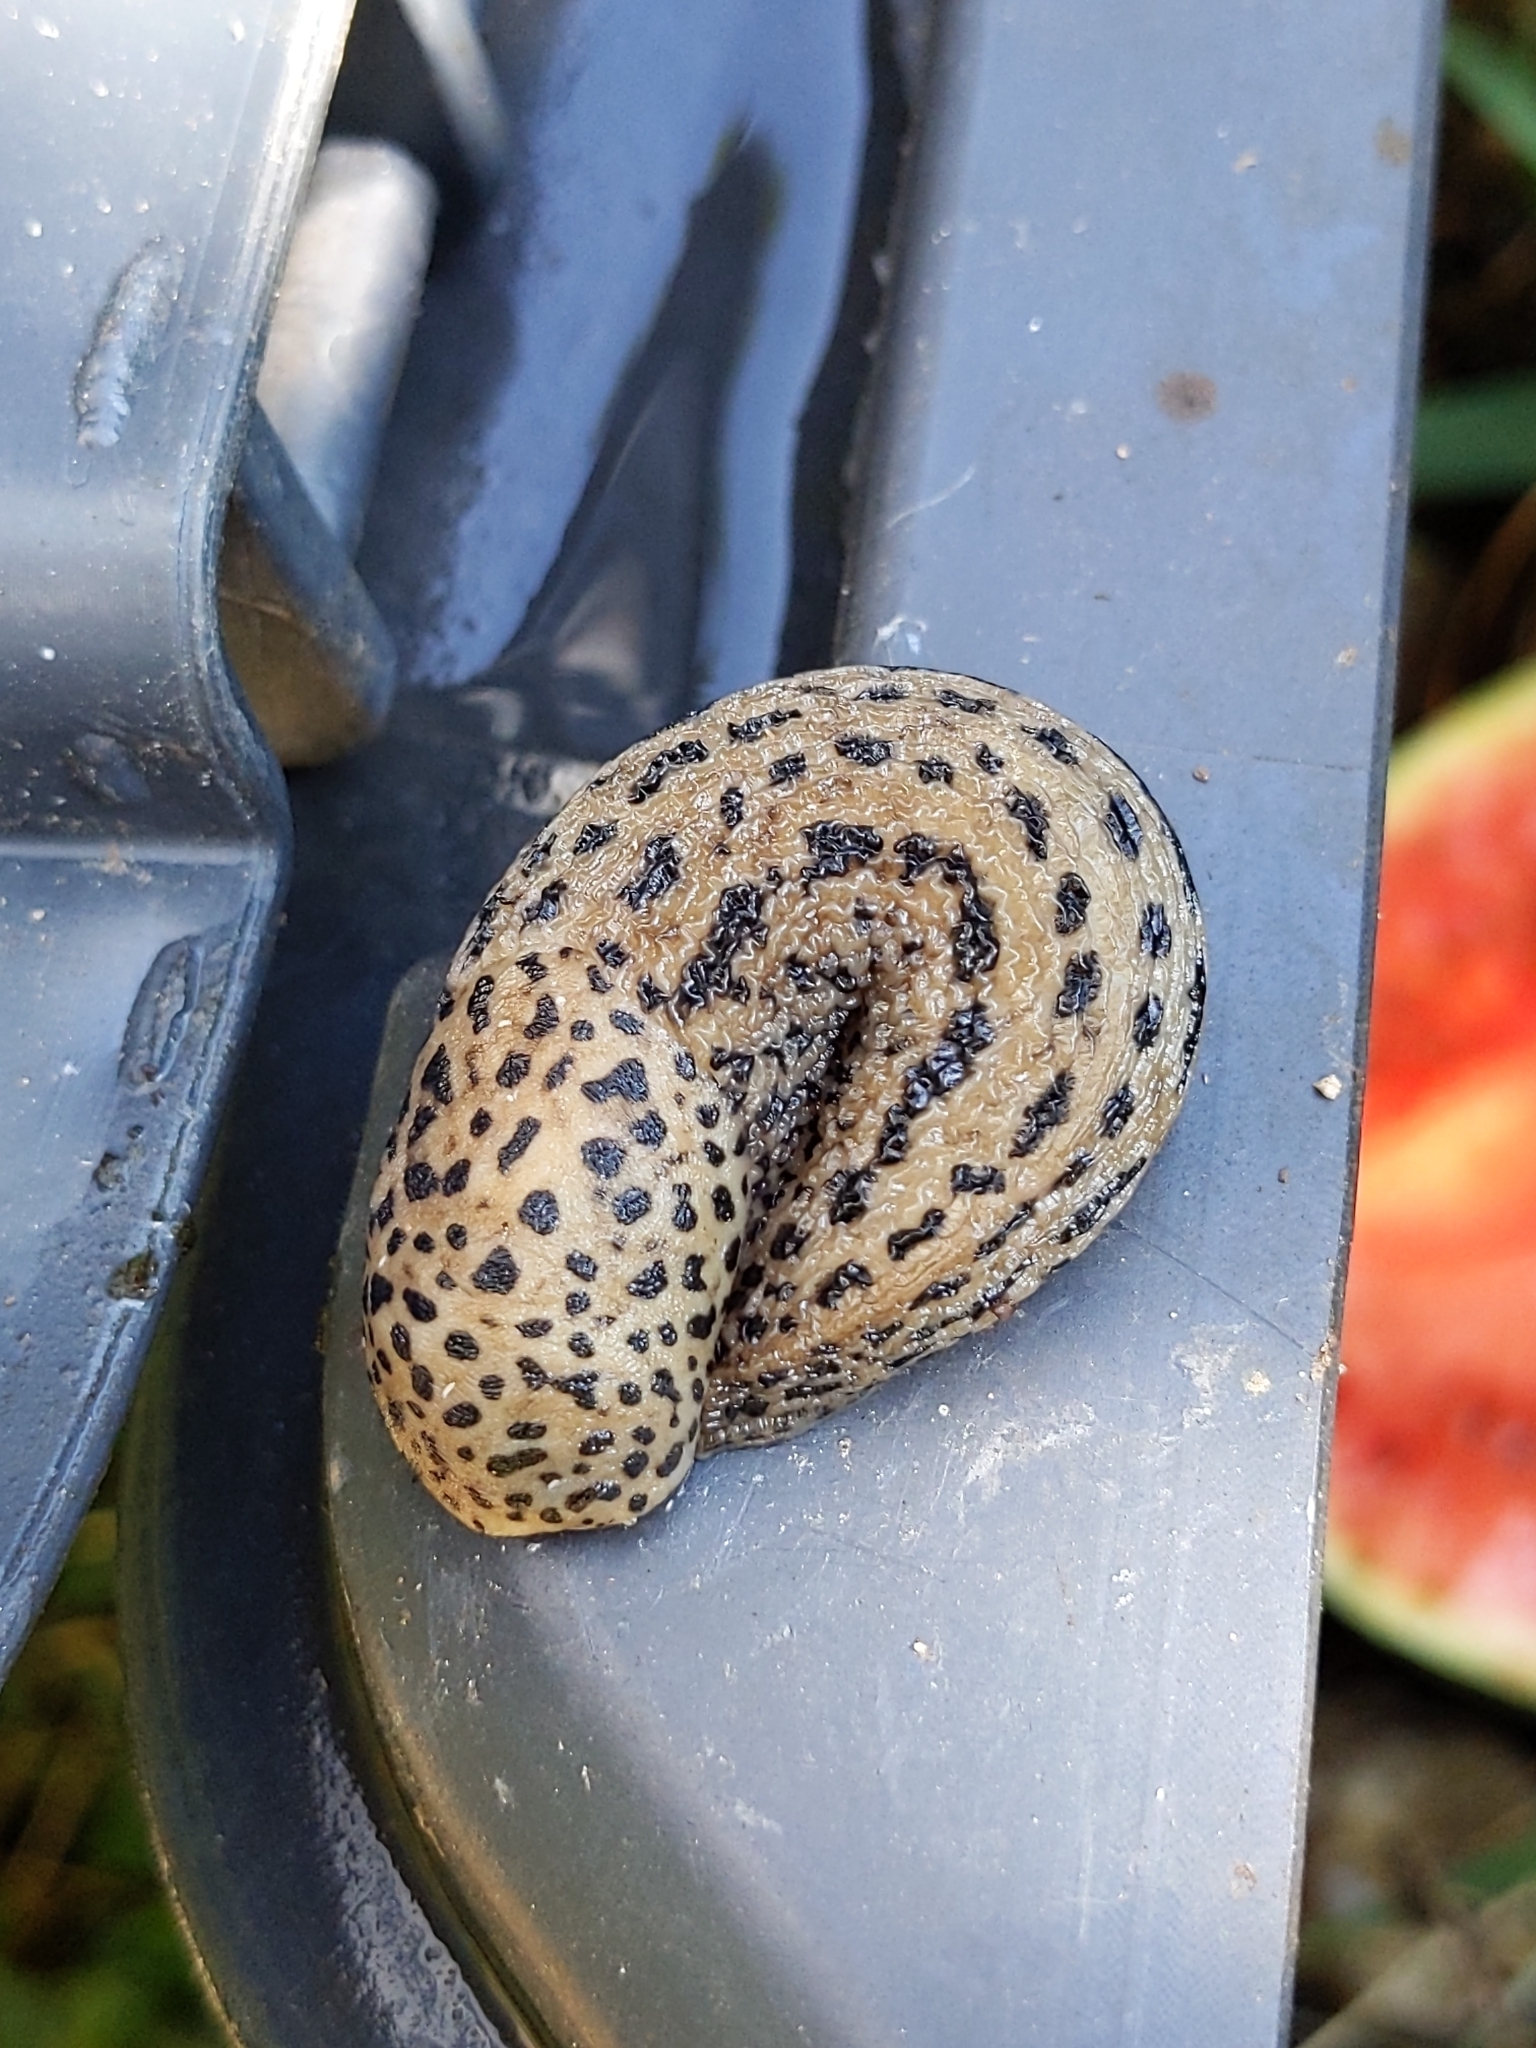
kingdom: Animalia
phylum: Mollusca
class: Gastropoda
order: Stylommatophora
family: Limacidae
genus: Limax
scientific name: Limax maximus
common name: Great grey slug
